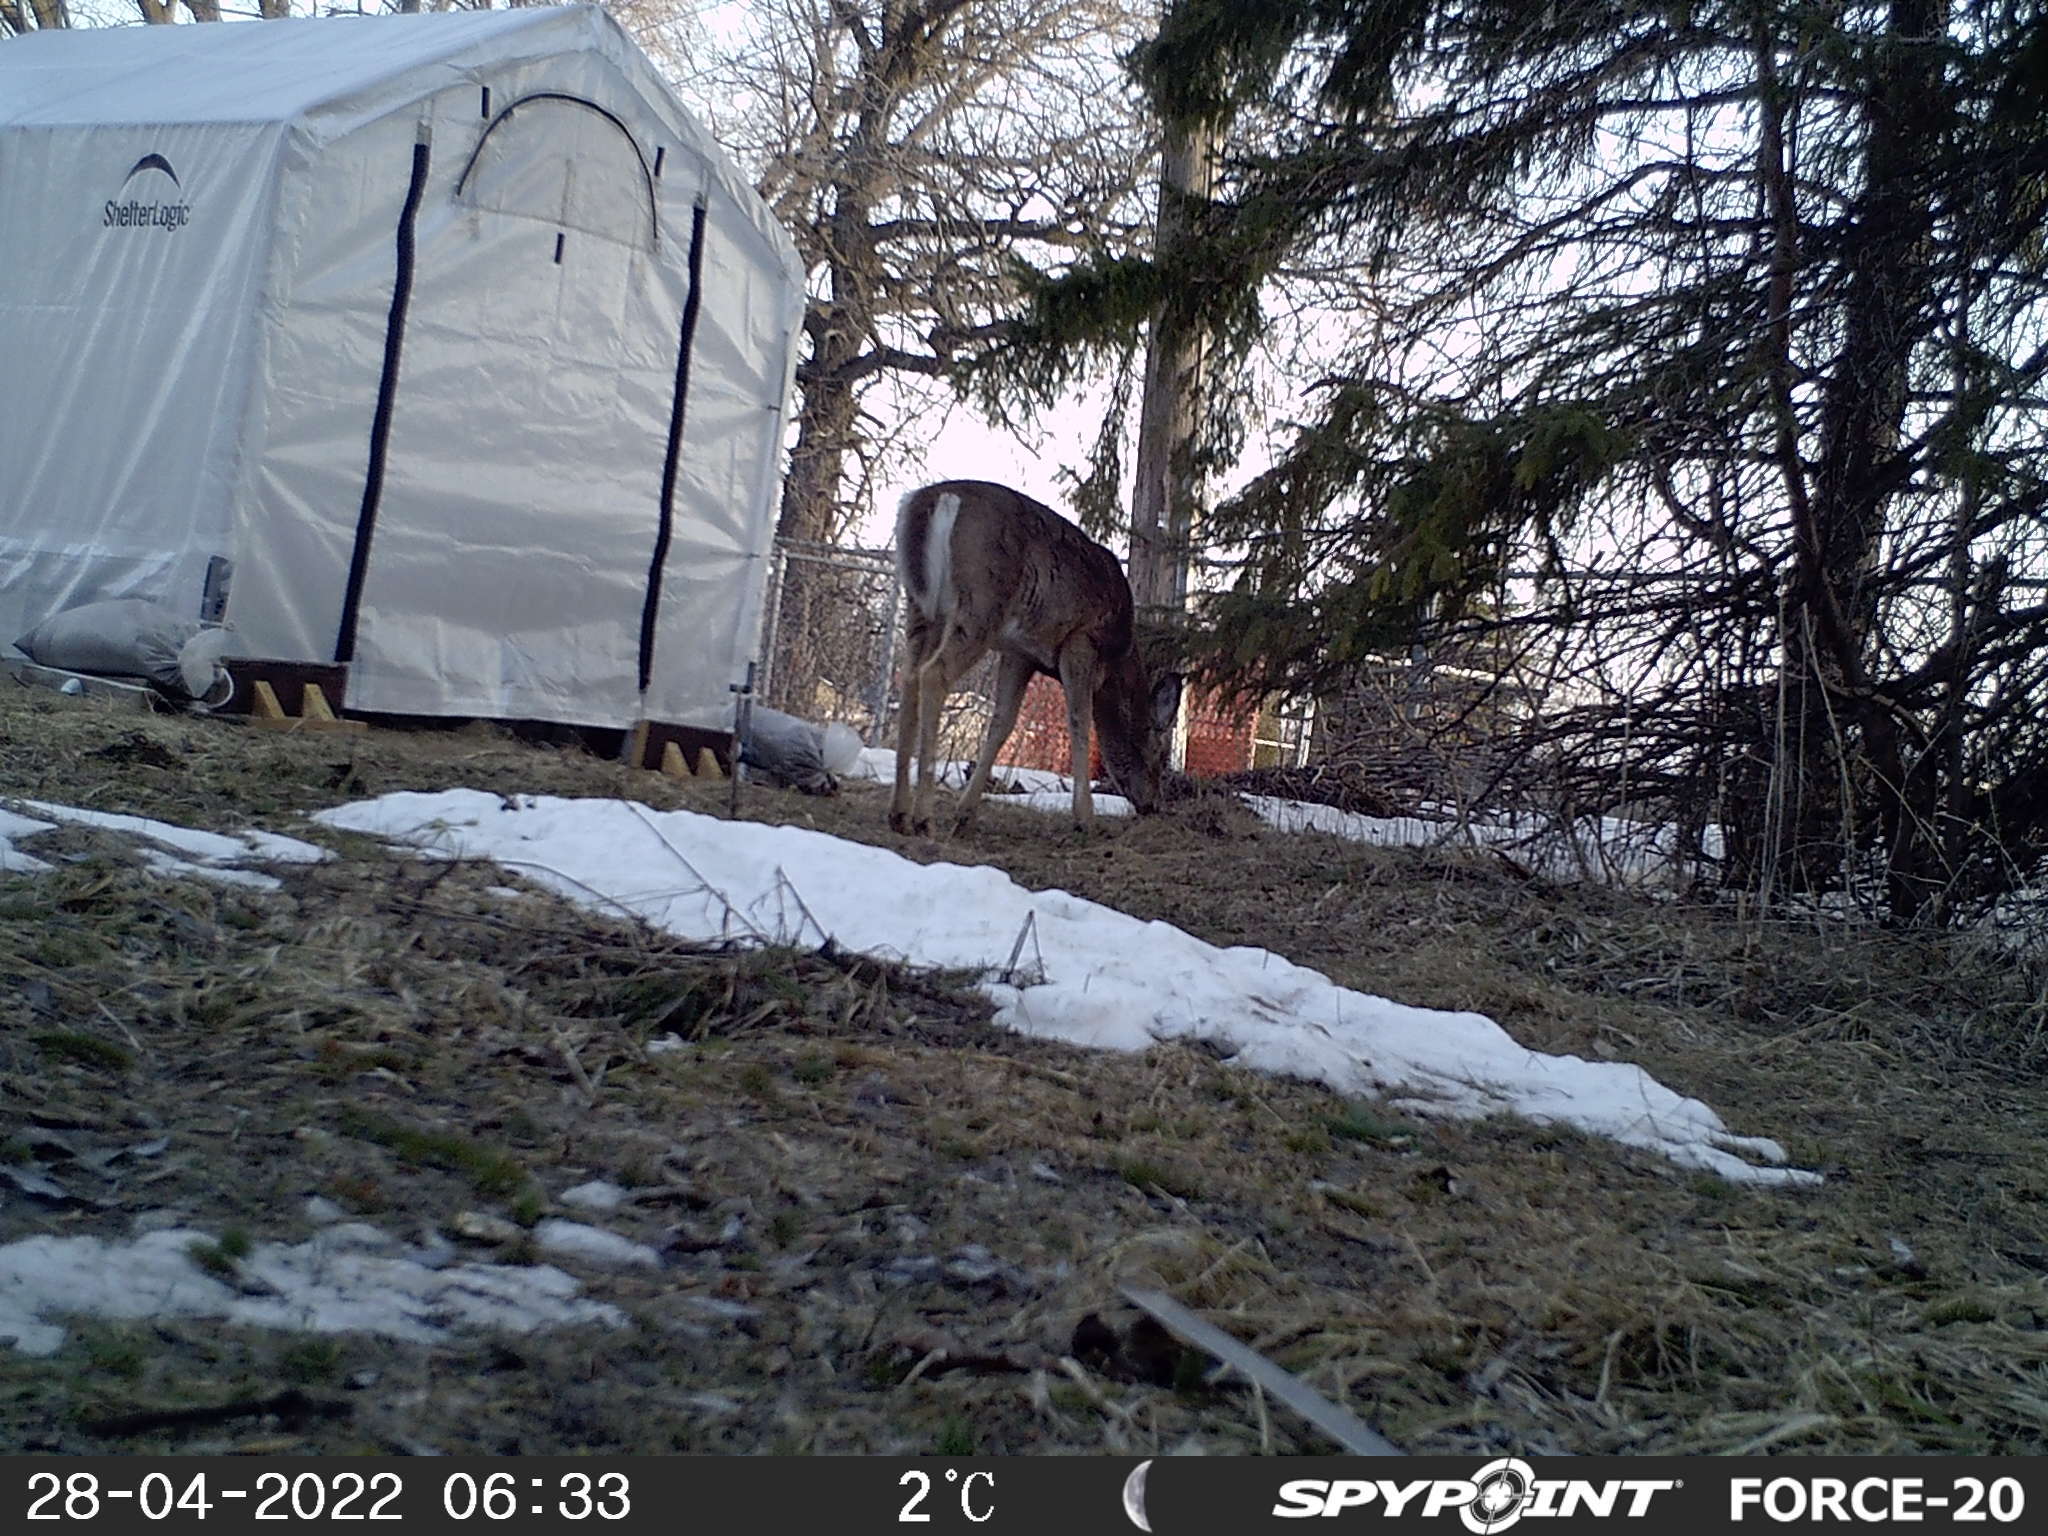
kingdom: Animalia
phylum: Chordata
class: Mammalia
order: Artiodactyla
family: Cervidae
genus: Odocoileus
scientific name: Odocoileus virginianus
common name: White-tailed deer
